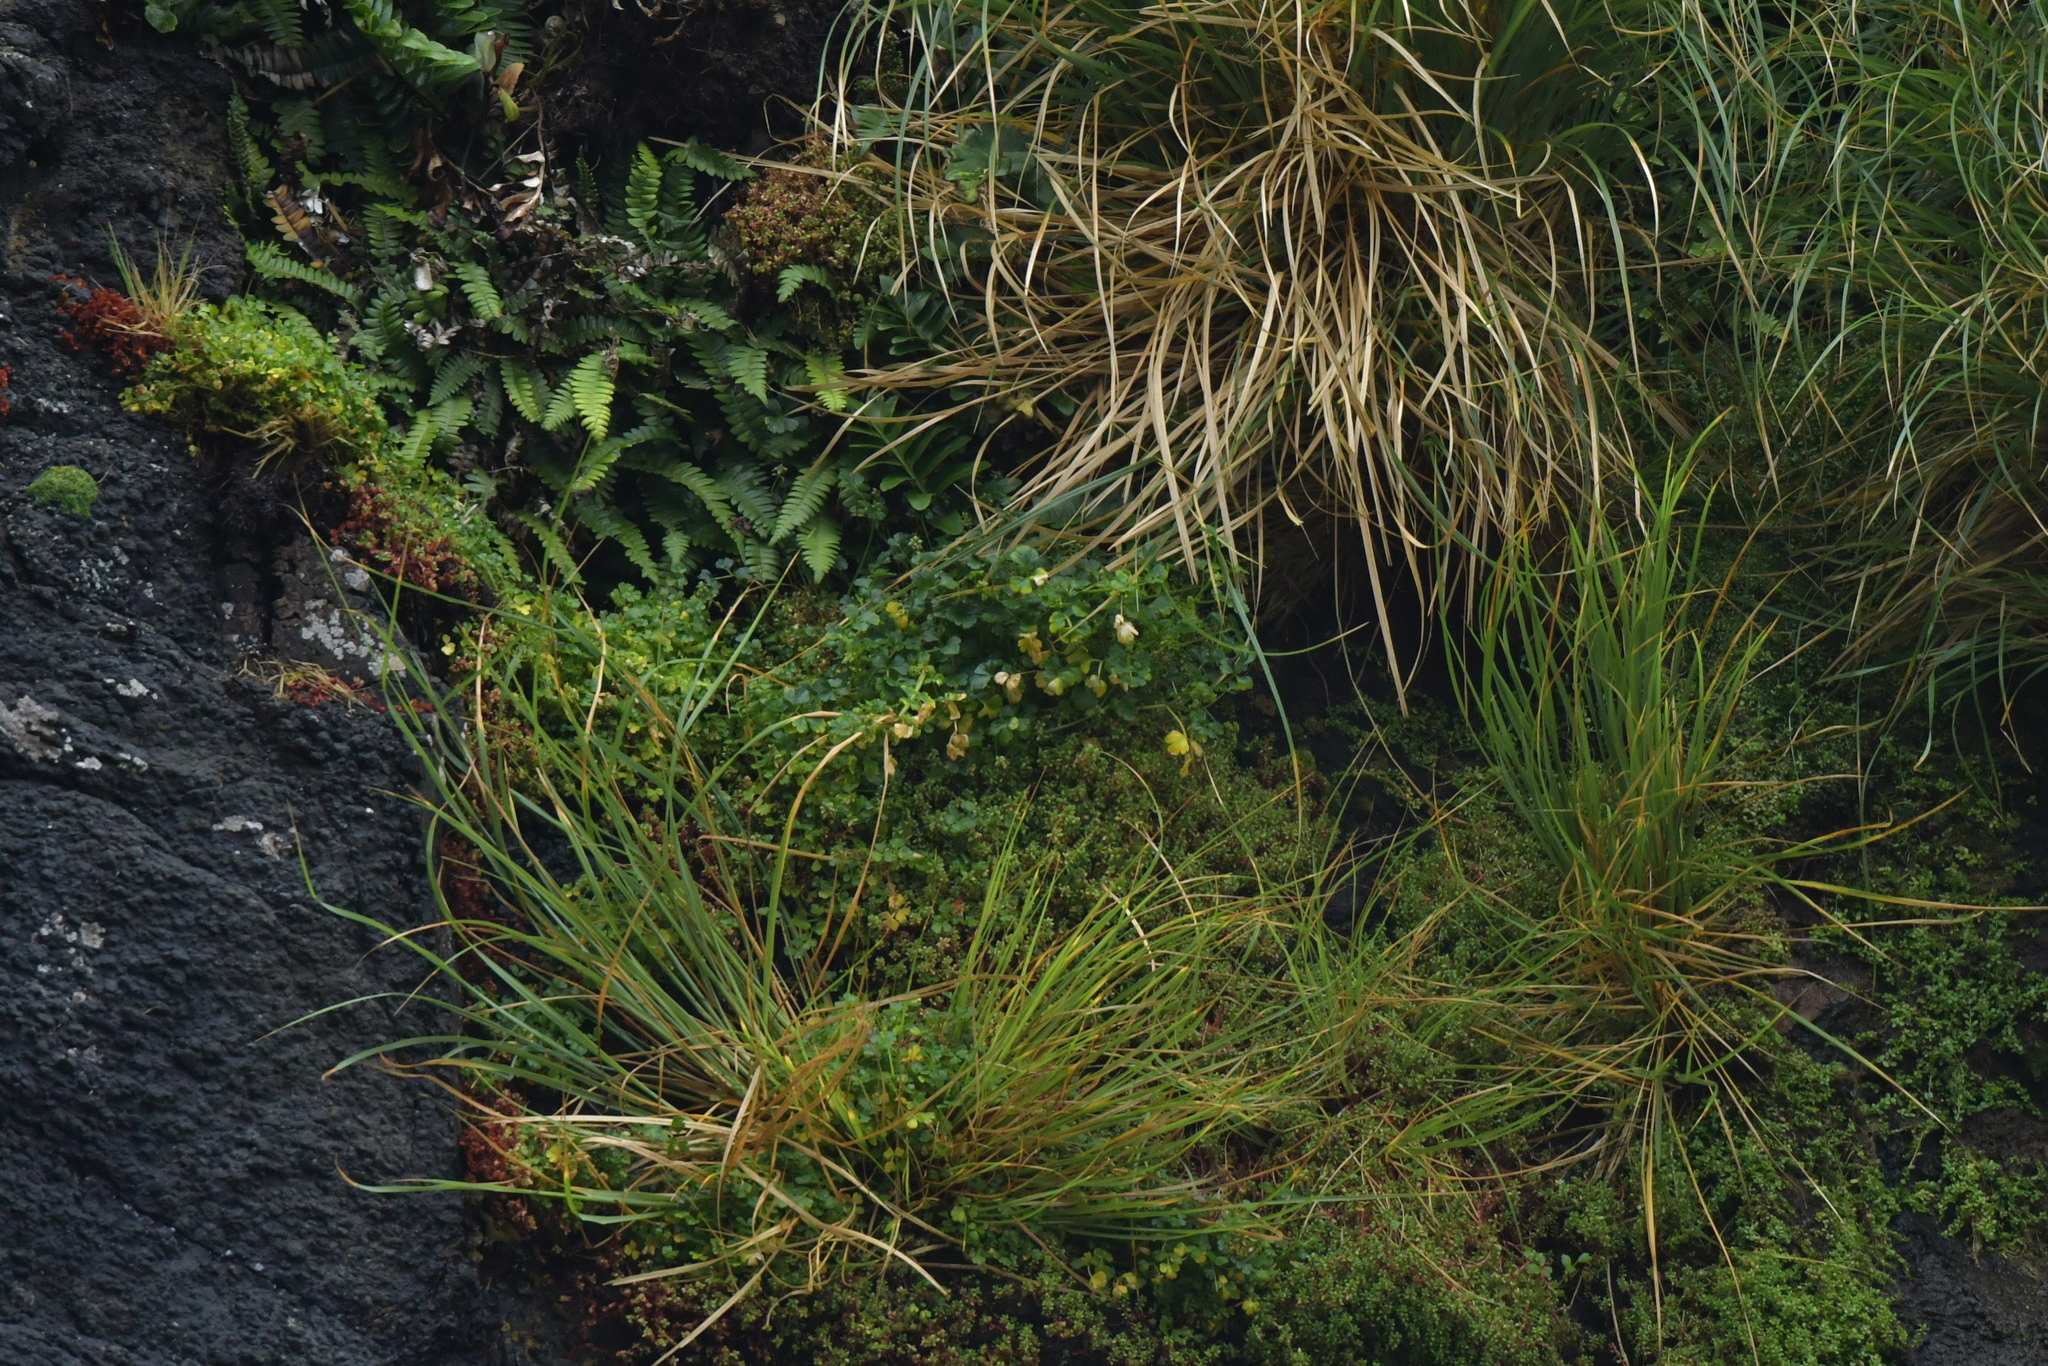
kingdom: Plantae
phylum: Tracheophyta
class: Magnoliopsida
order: Apiales
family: Apiaceae
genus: Apium
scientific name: Apium prostratum
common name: Prostrate marshwort
